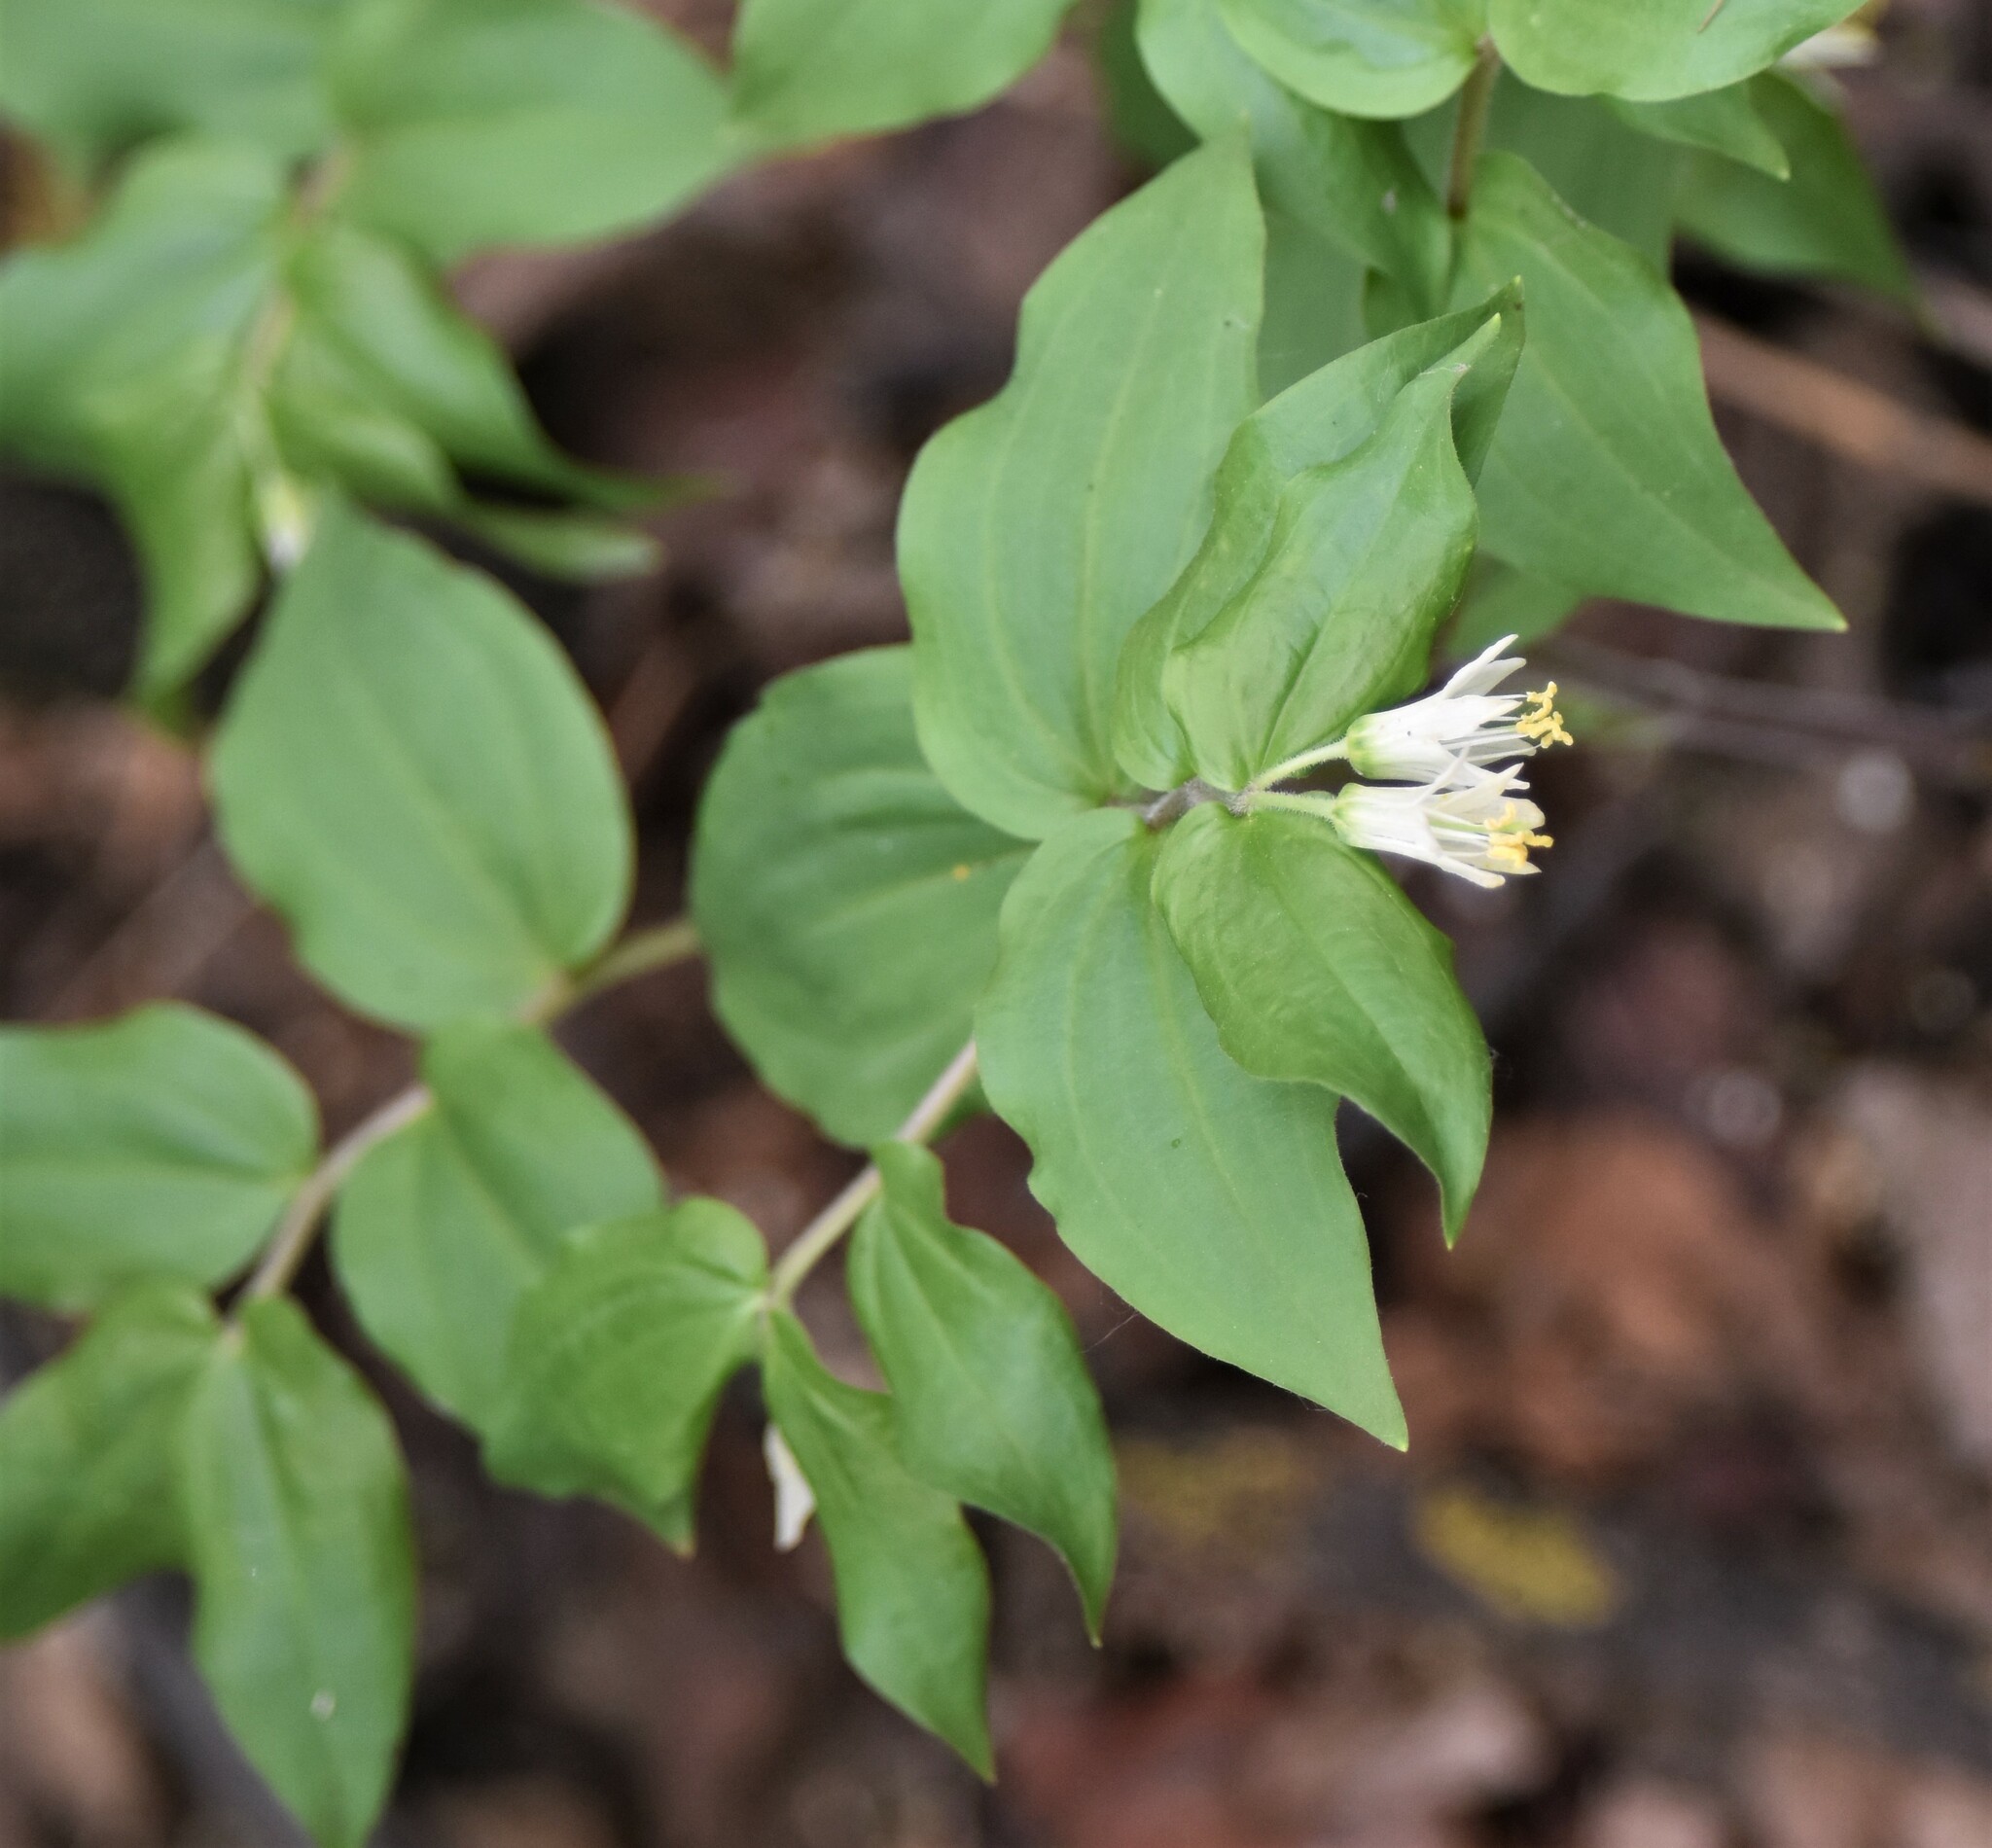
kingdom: Plantae
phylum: Tracheophyta
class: Liliopsida
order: Liliales
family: Liliaceae
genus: Prosartes
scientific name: Prosartes trachycarpa
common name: Rough-fruit fairy-bells
